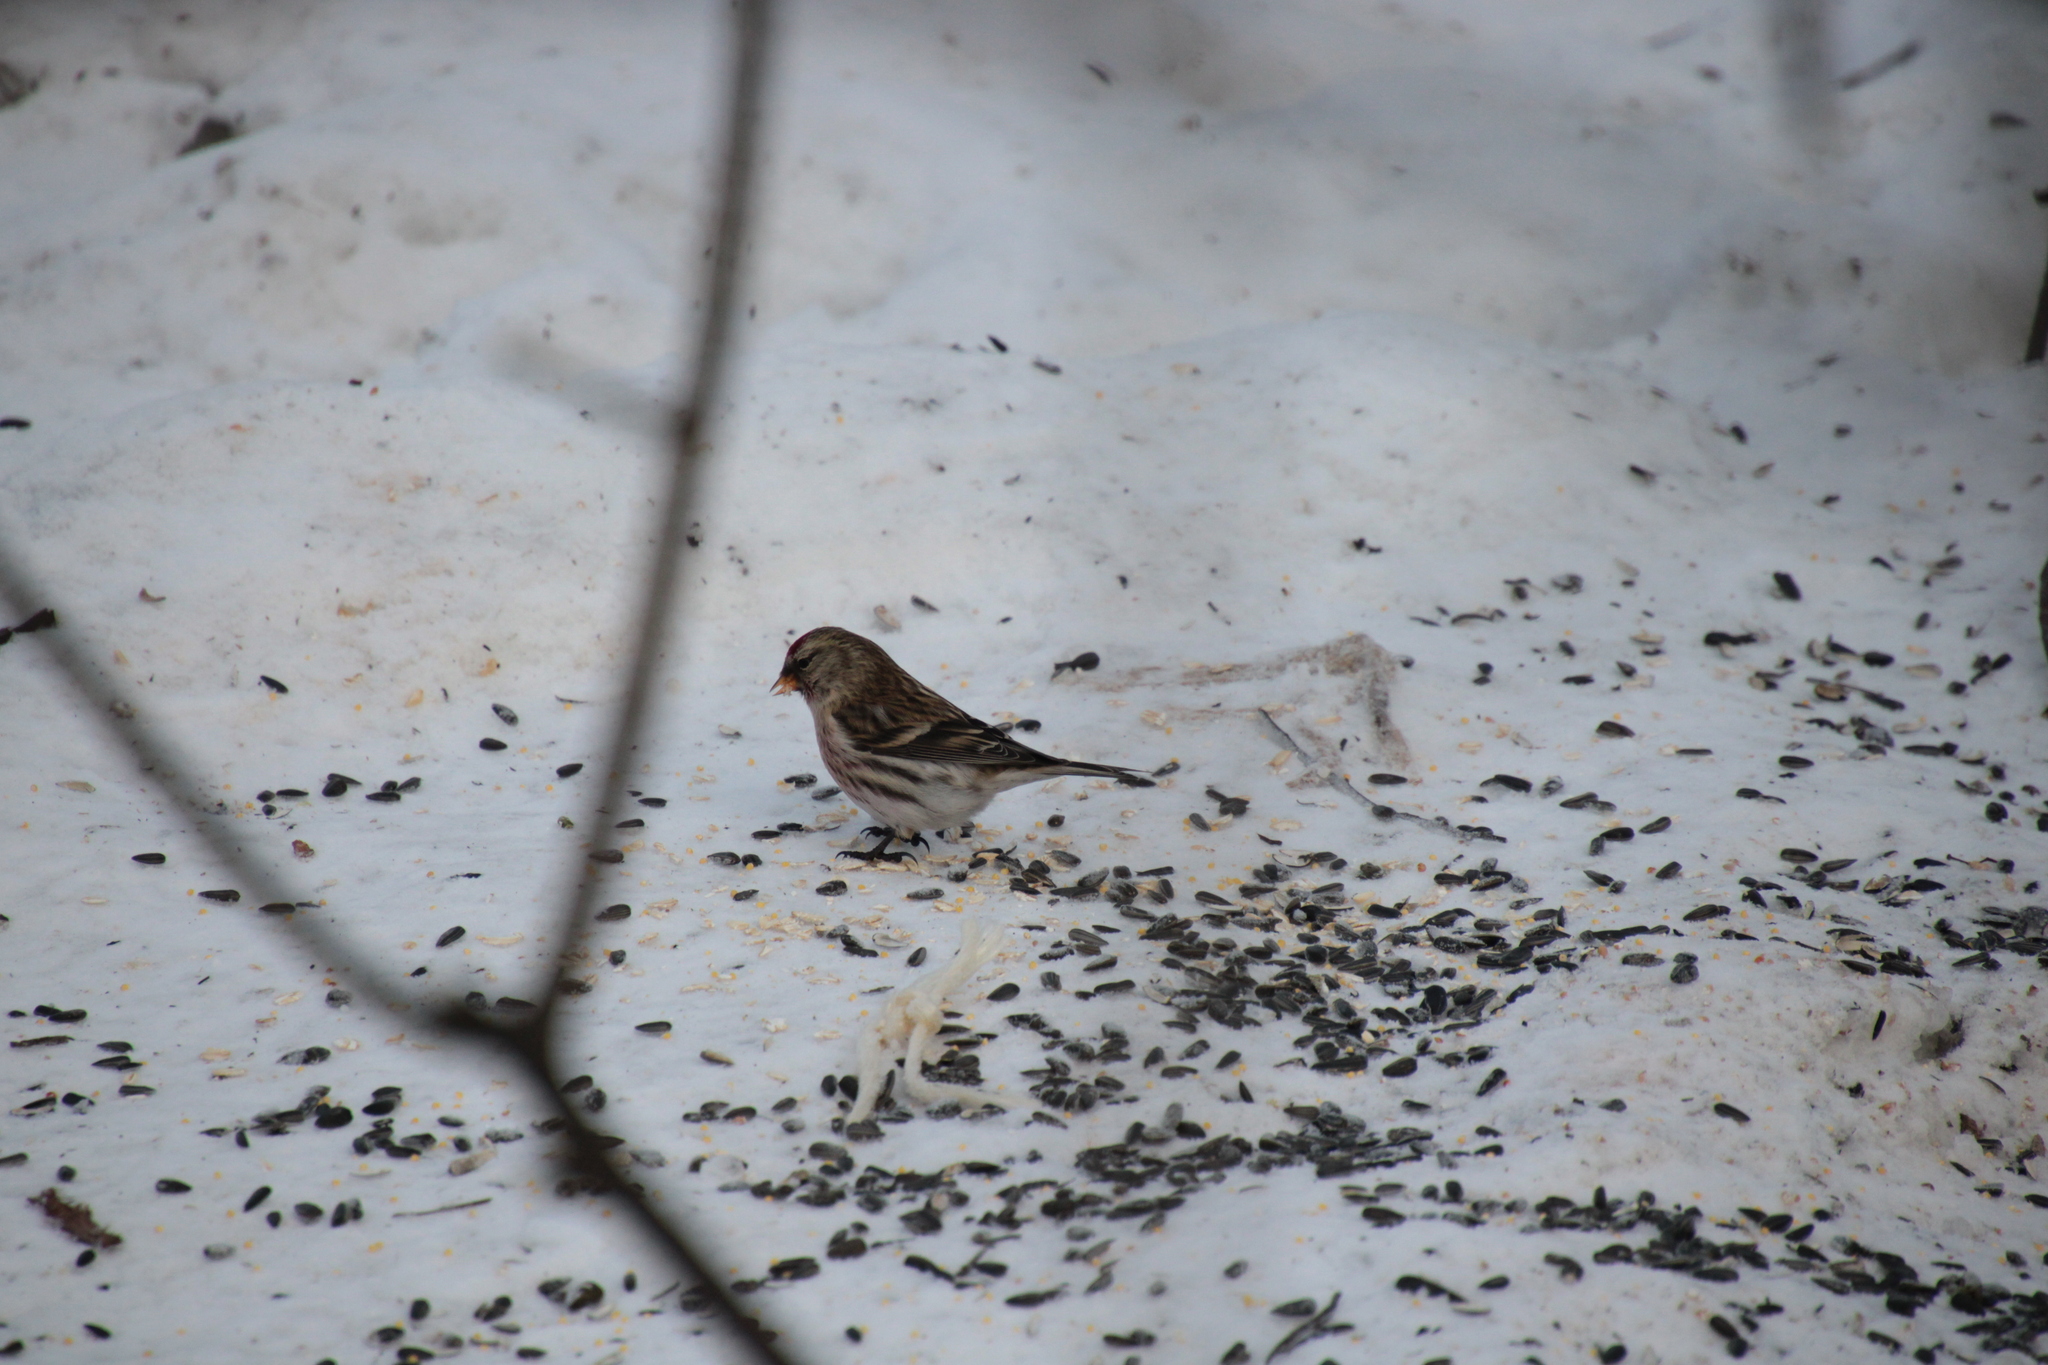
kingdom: Animalia
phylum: Chordata
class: Aves
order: Passeriformes
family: Fringillidae
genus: Acanthis
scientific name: Acanthis flammea
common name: Common redpoll
